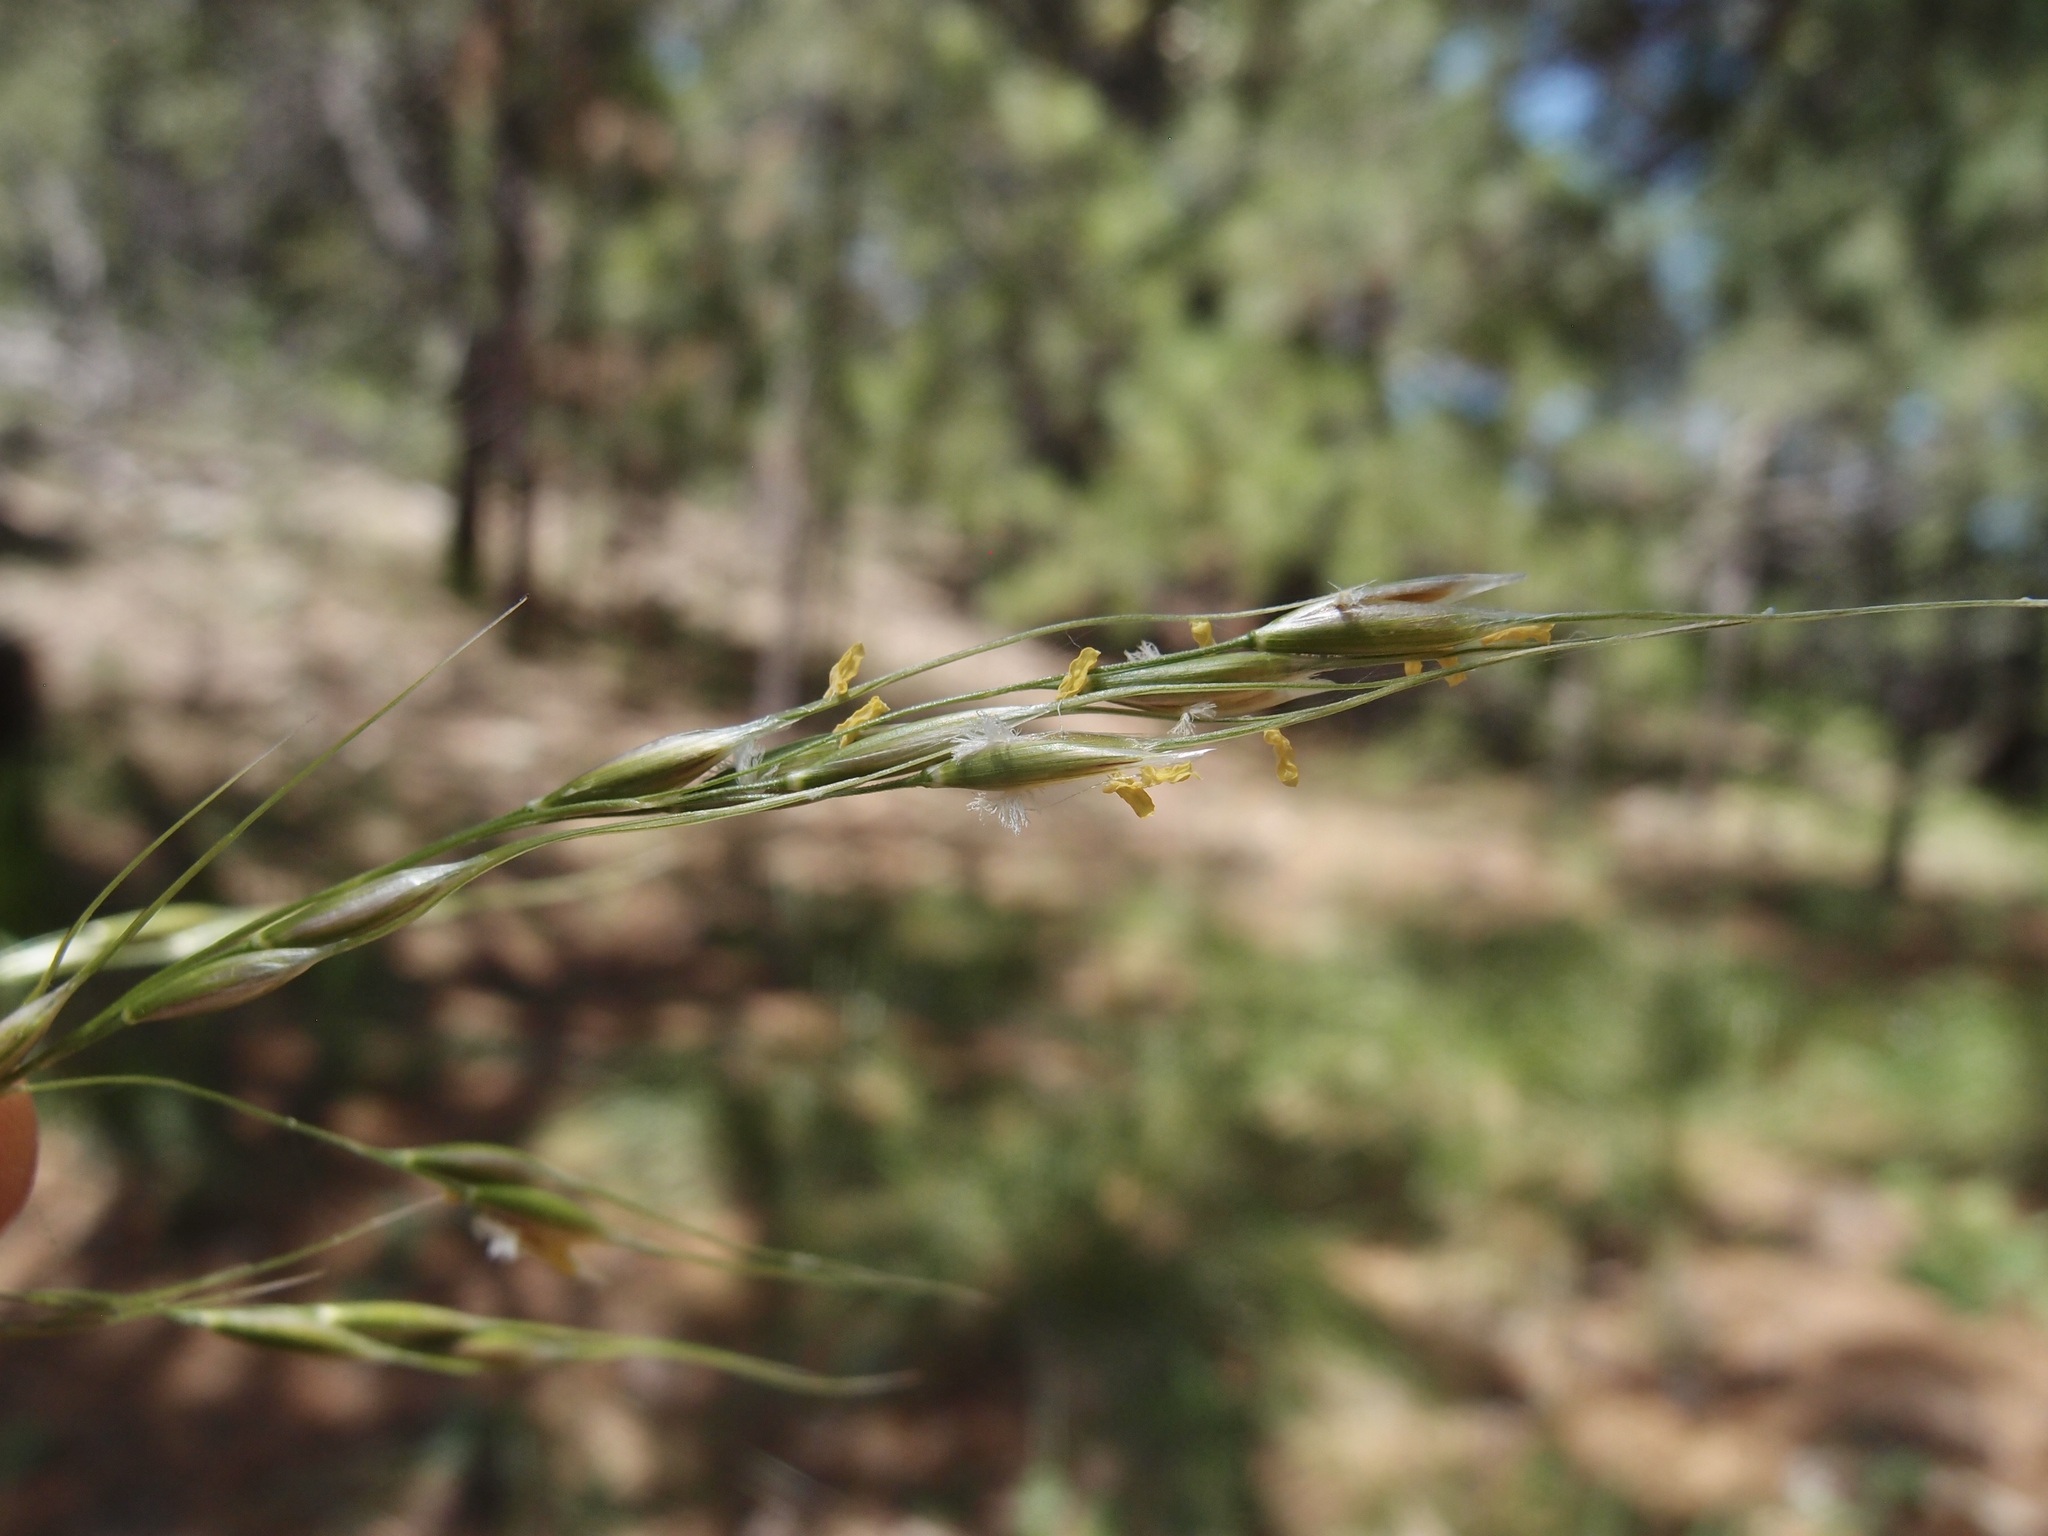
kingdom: Plantae
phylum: Tracheophyta
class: Liliopsida
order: Poales
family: Poaceae
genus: Piptochaetium
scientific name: Piptochaetium pringlei
